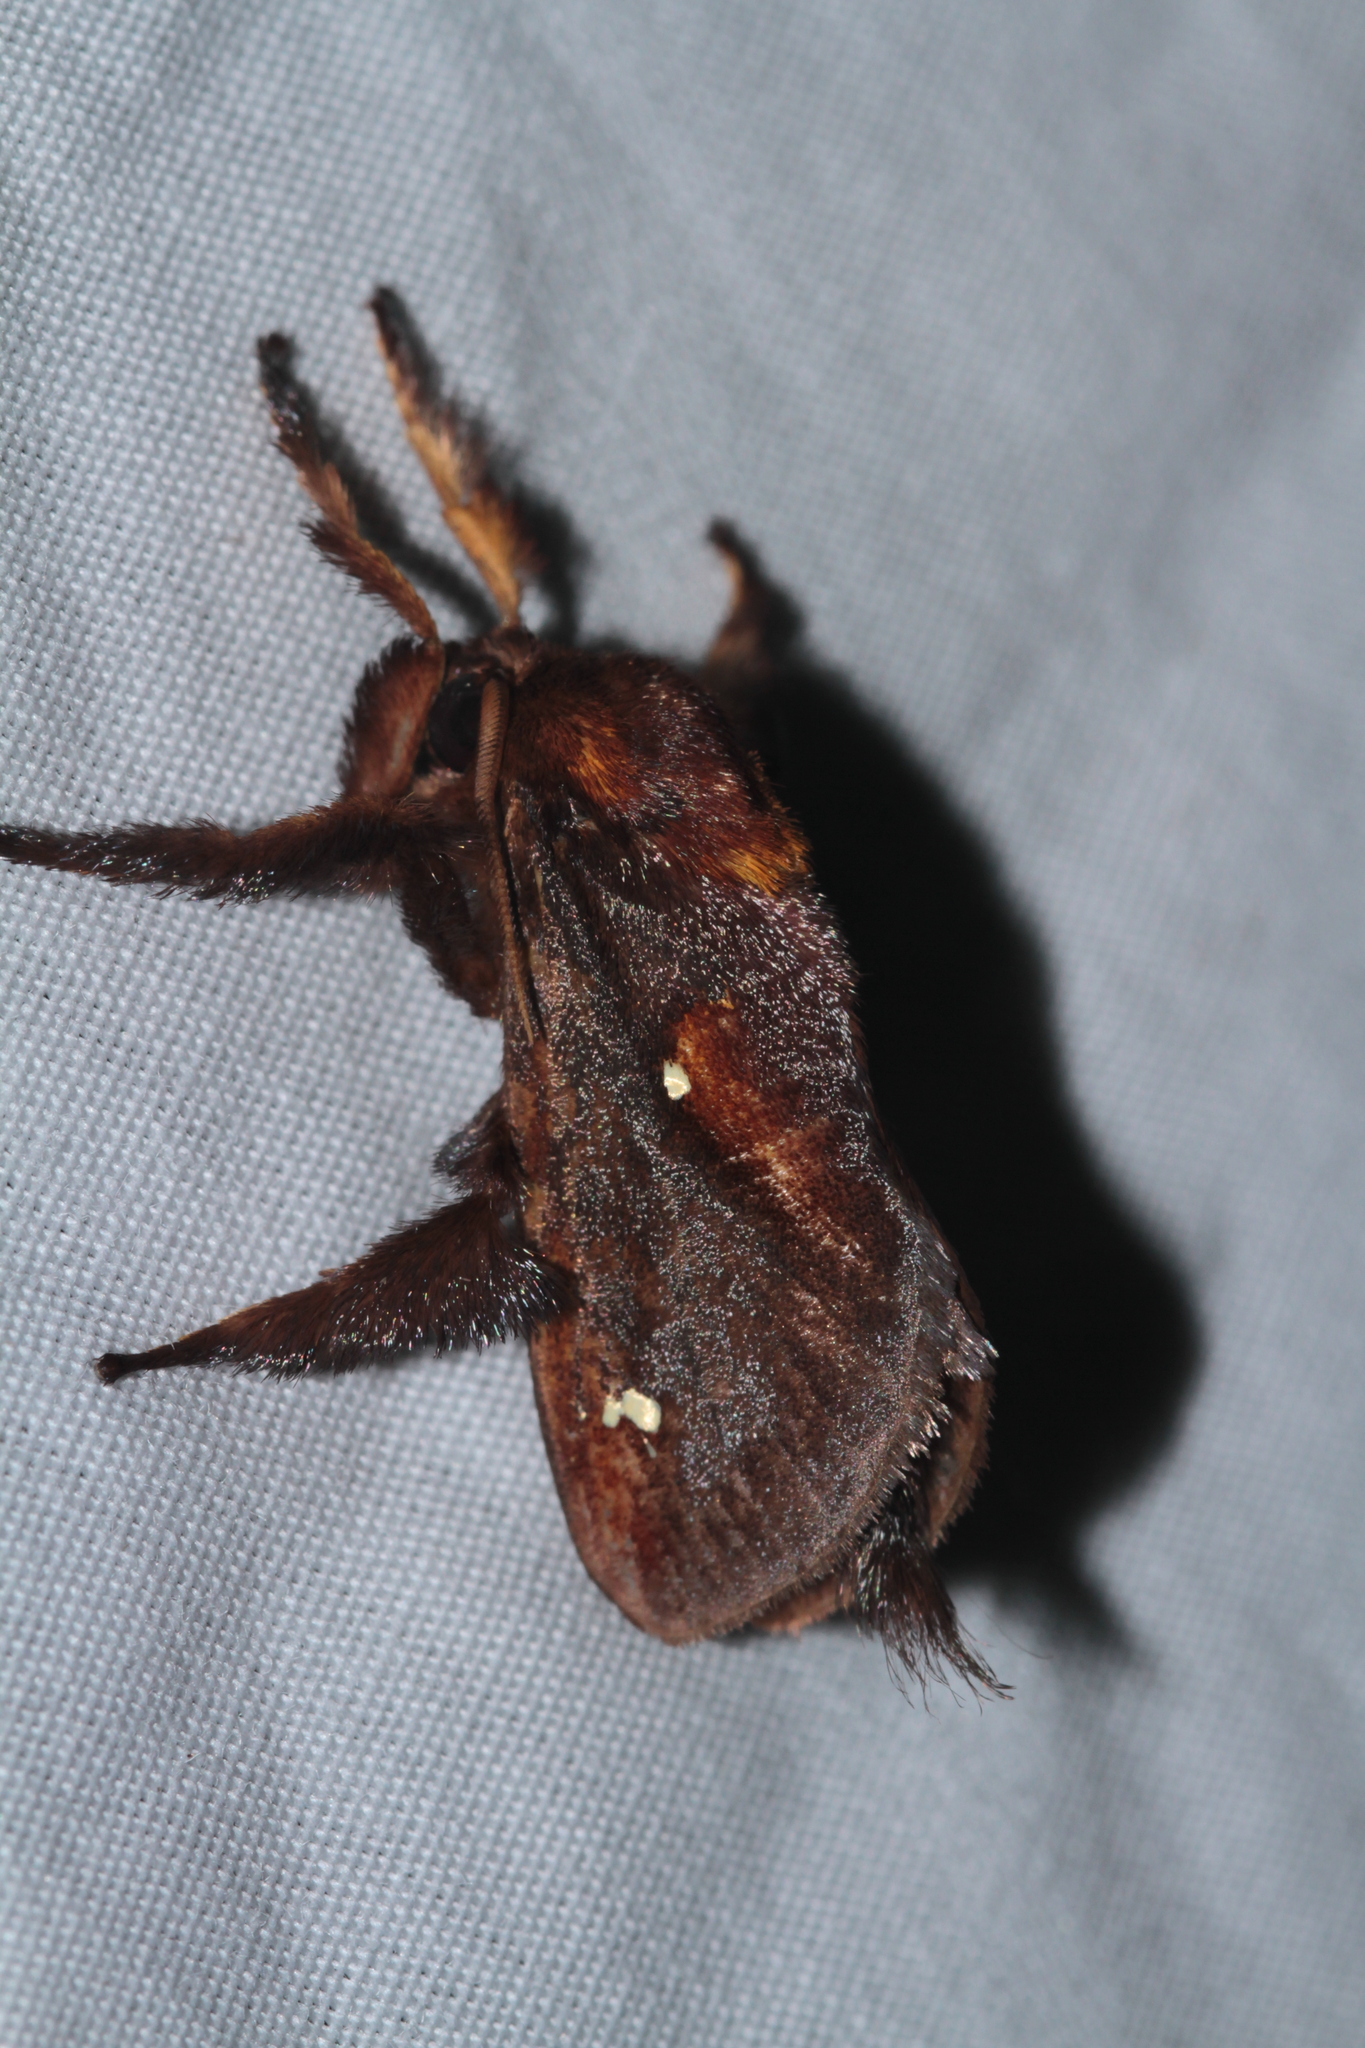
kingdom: Animalia
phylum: Arthropoda
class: Insecta
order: Lepidoptera
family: Limacodidae
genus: Sibine
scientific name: Sibine lophostigma
